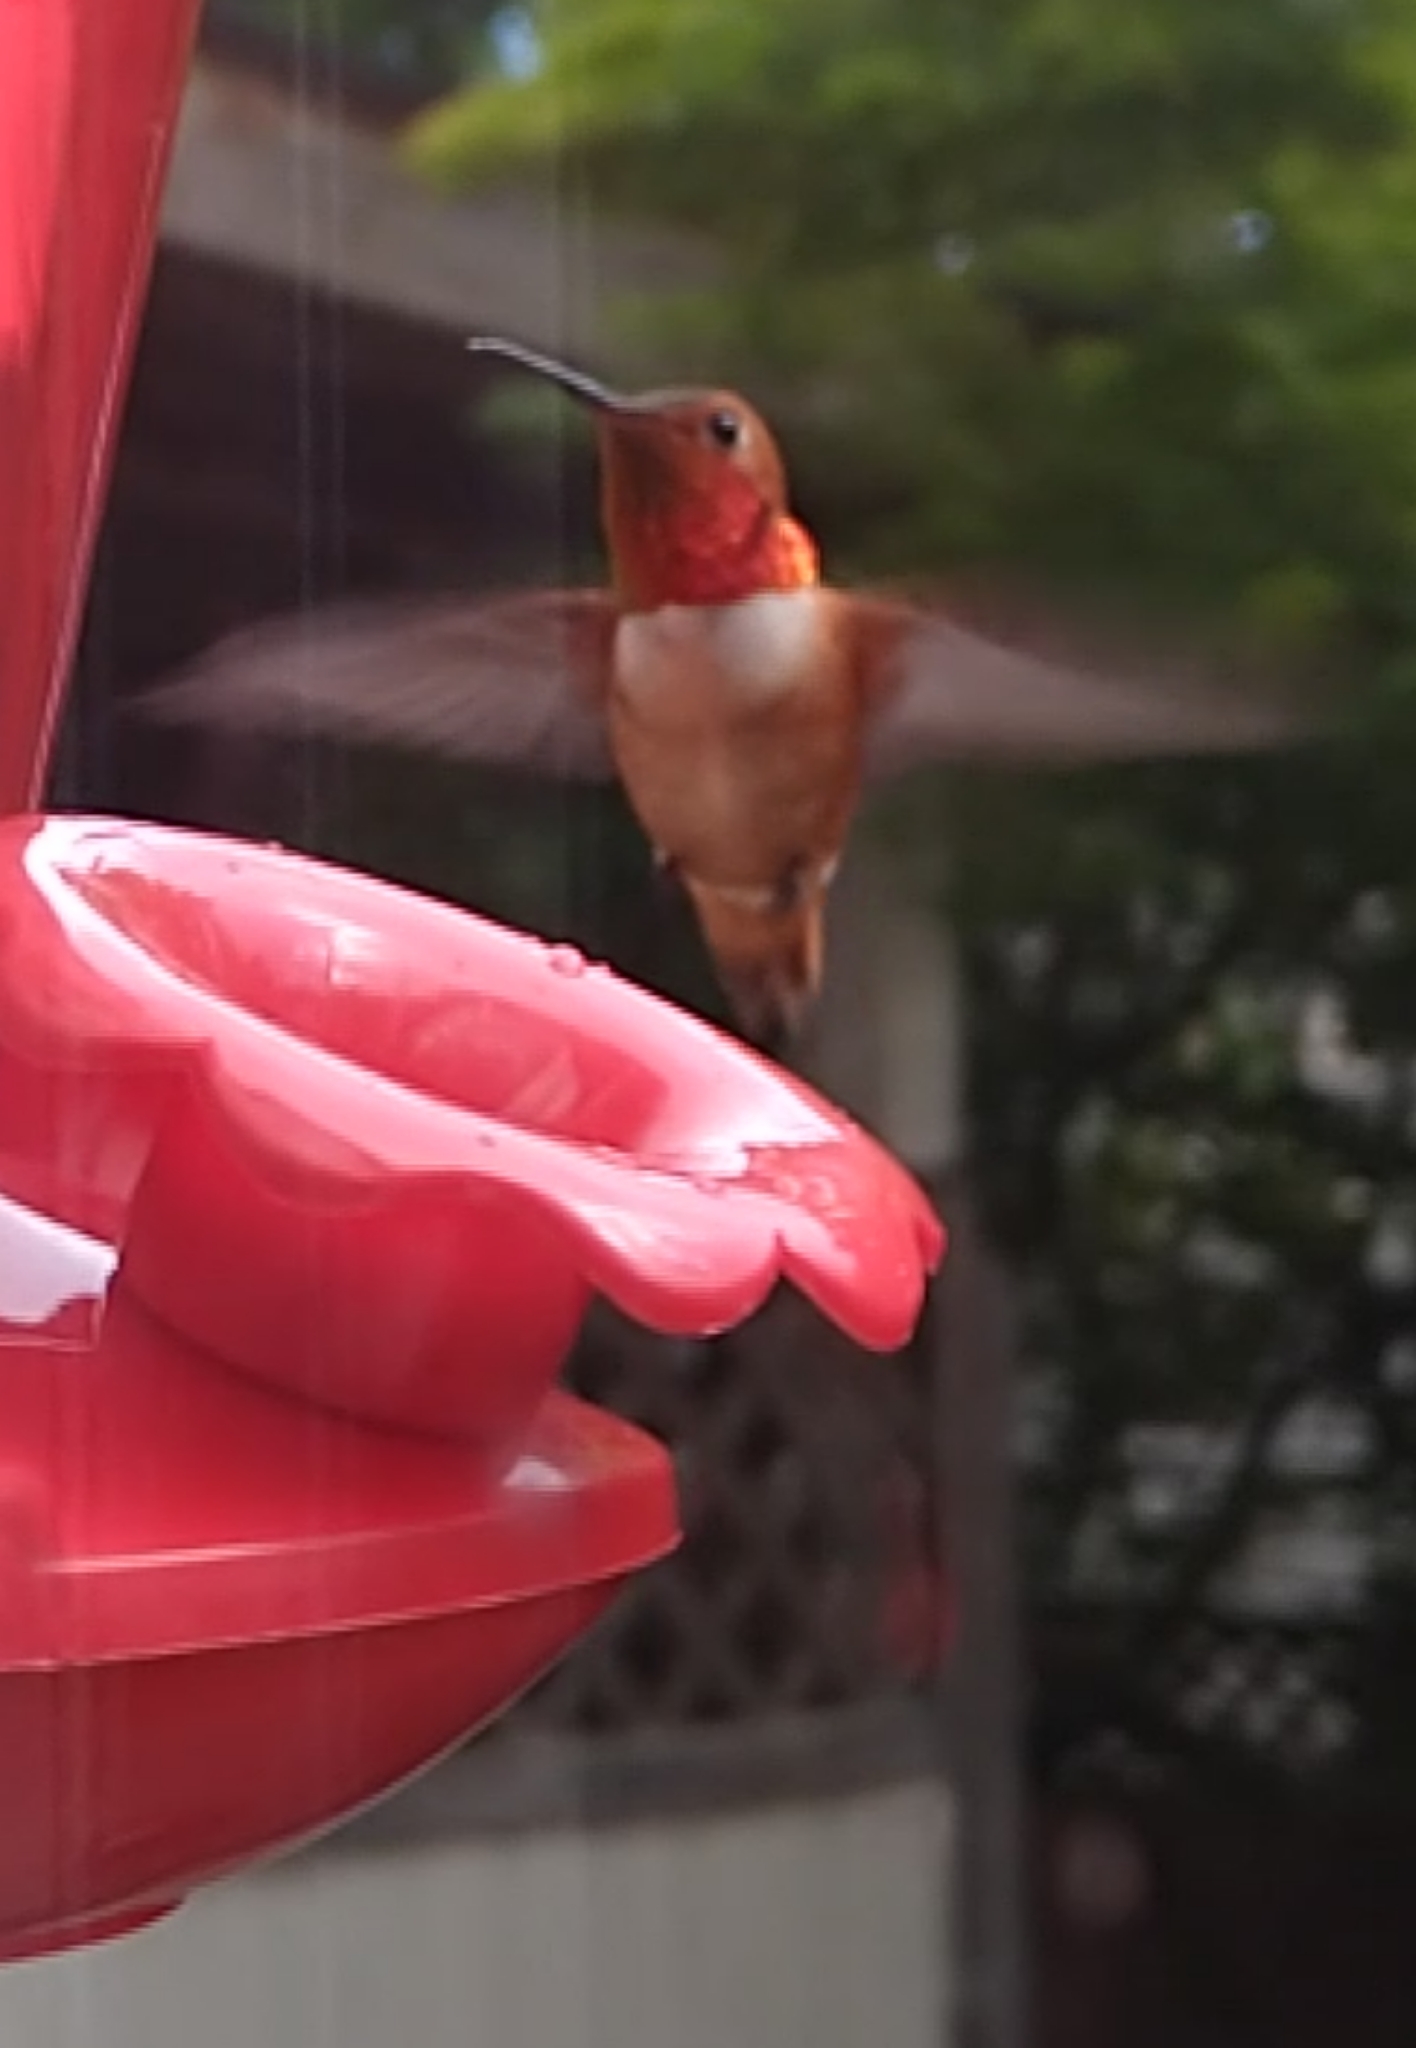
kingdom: Animalia
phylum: Chordata
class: Aves
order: Apodiformes
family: Trochilidae
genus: Selasphorus
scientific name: Selasphorus rufus
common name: Rufous hummingbird
